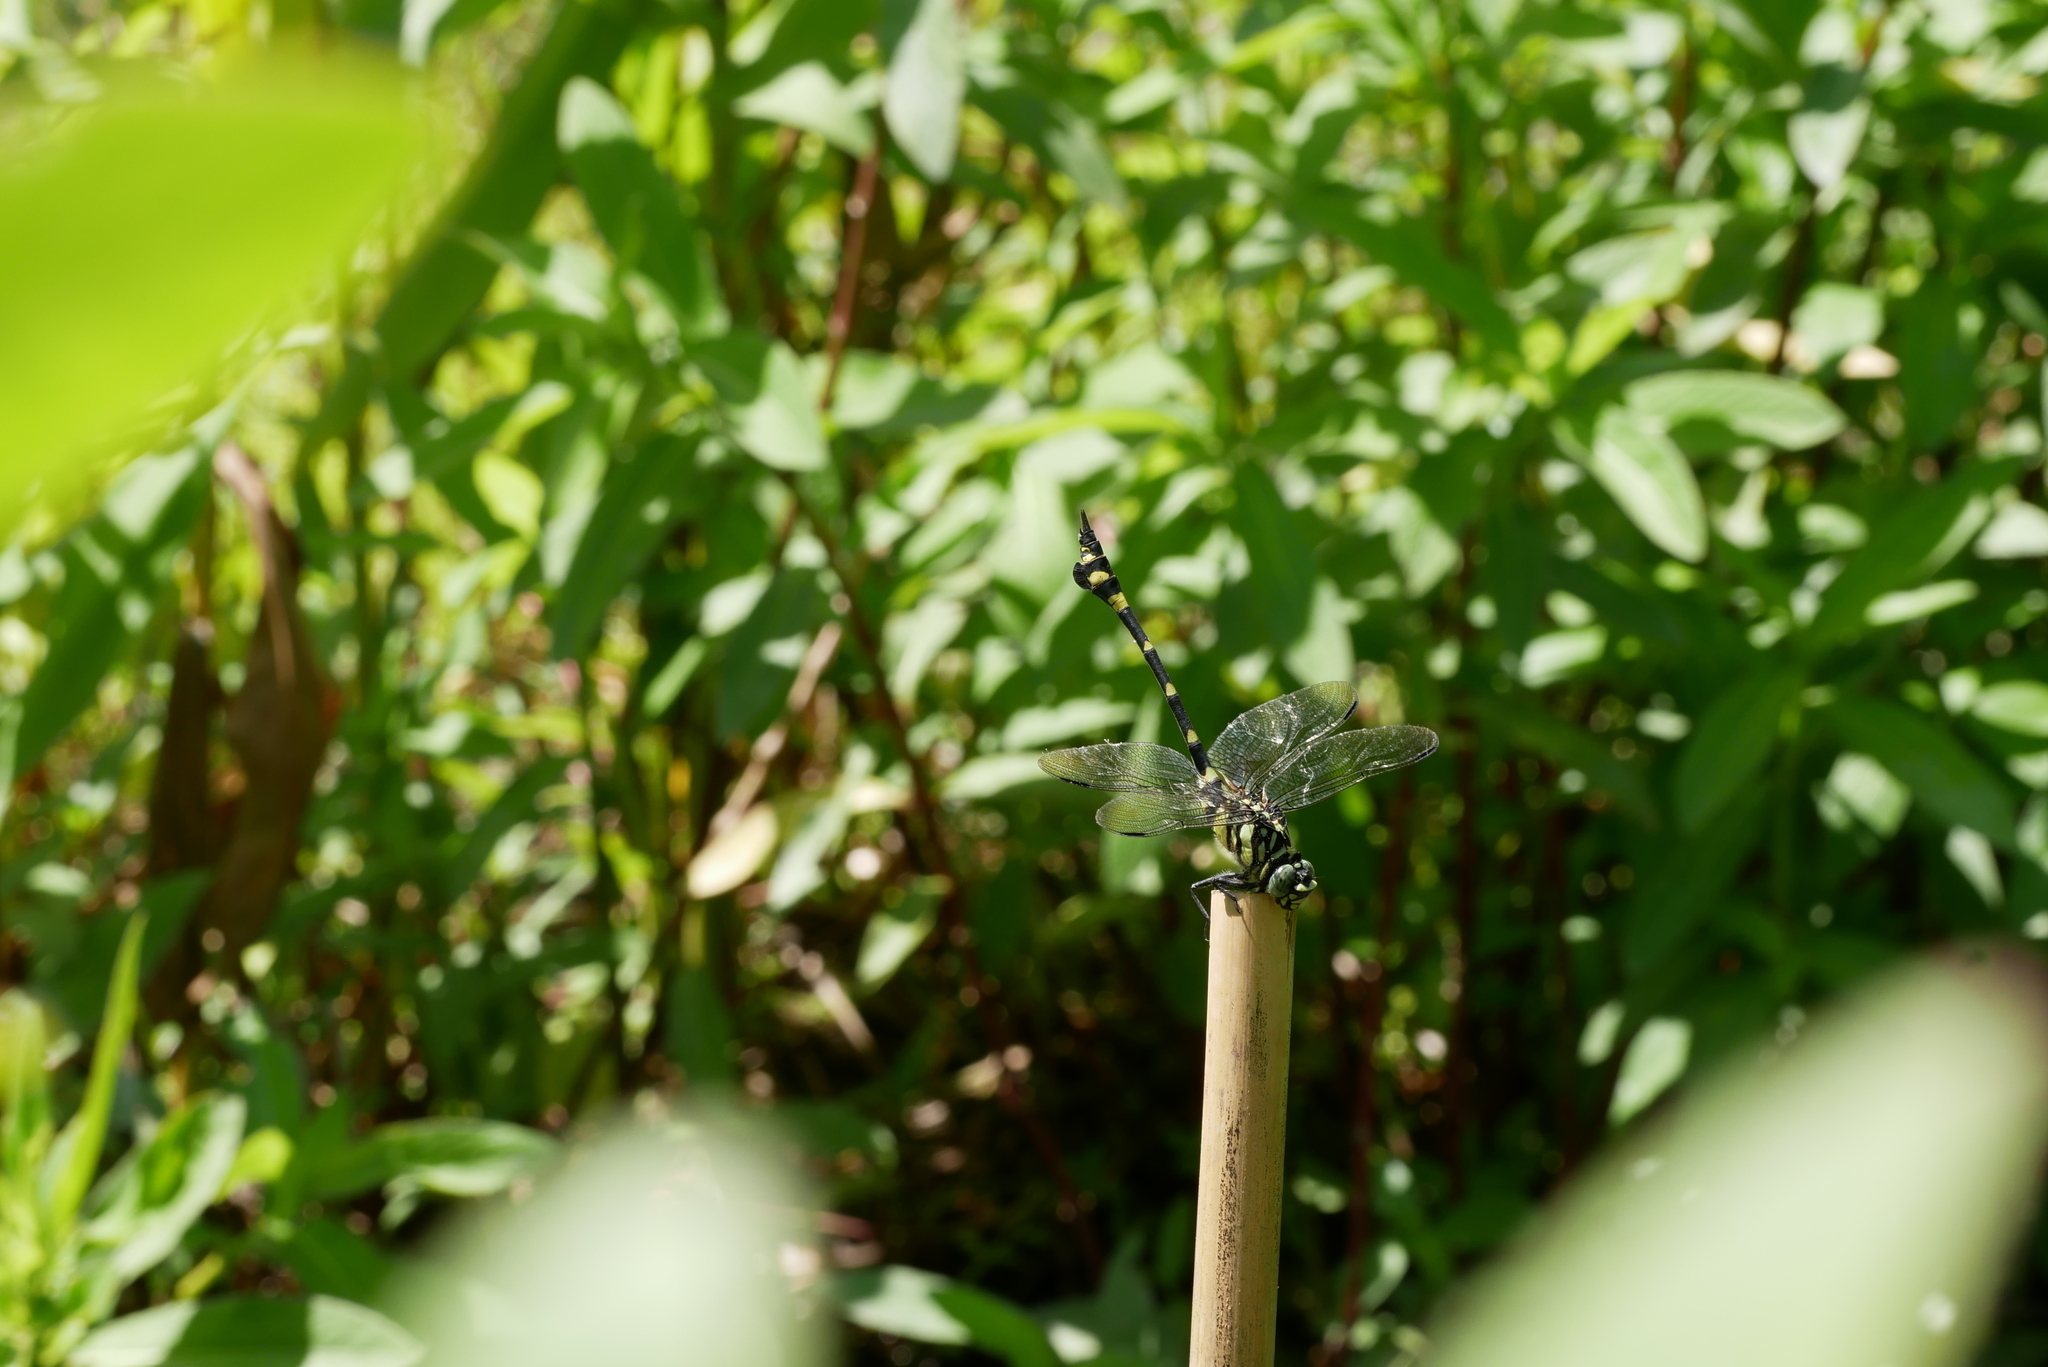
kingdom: Animalia
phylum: Arthropoda
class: Insecta
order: Odonata
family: Gomphidae
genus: Ictinogomphus
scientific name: Ictinogomphus rapax
